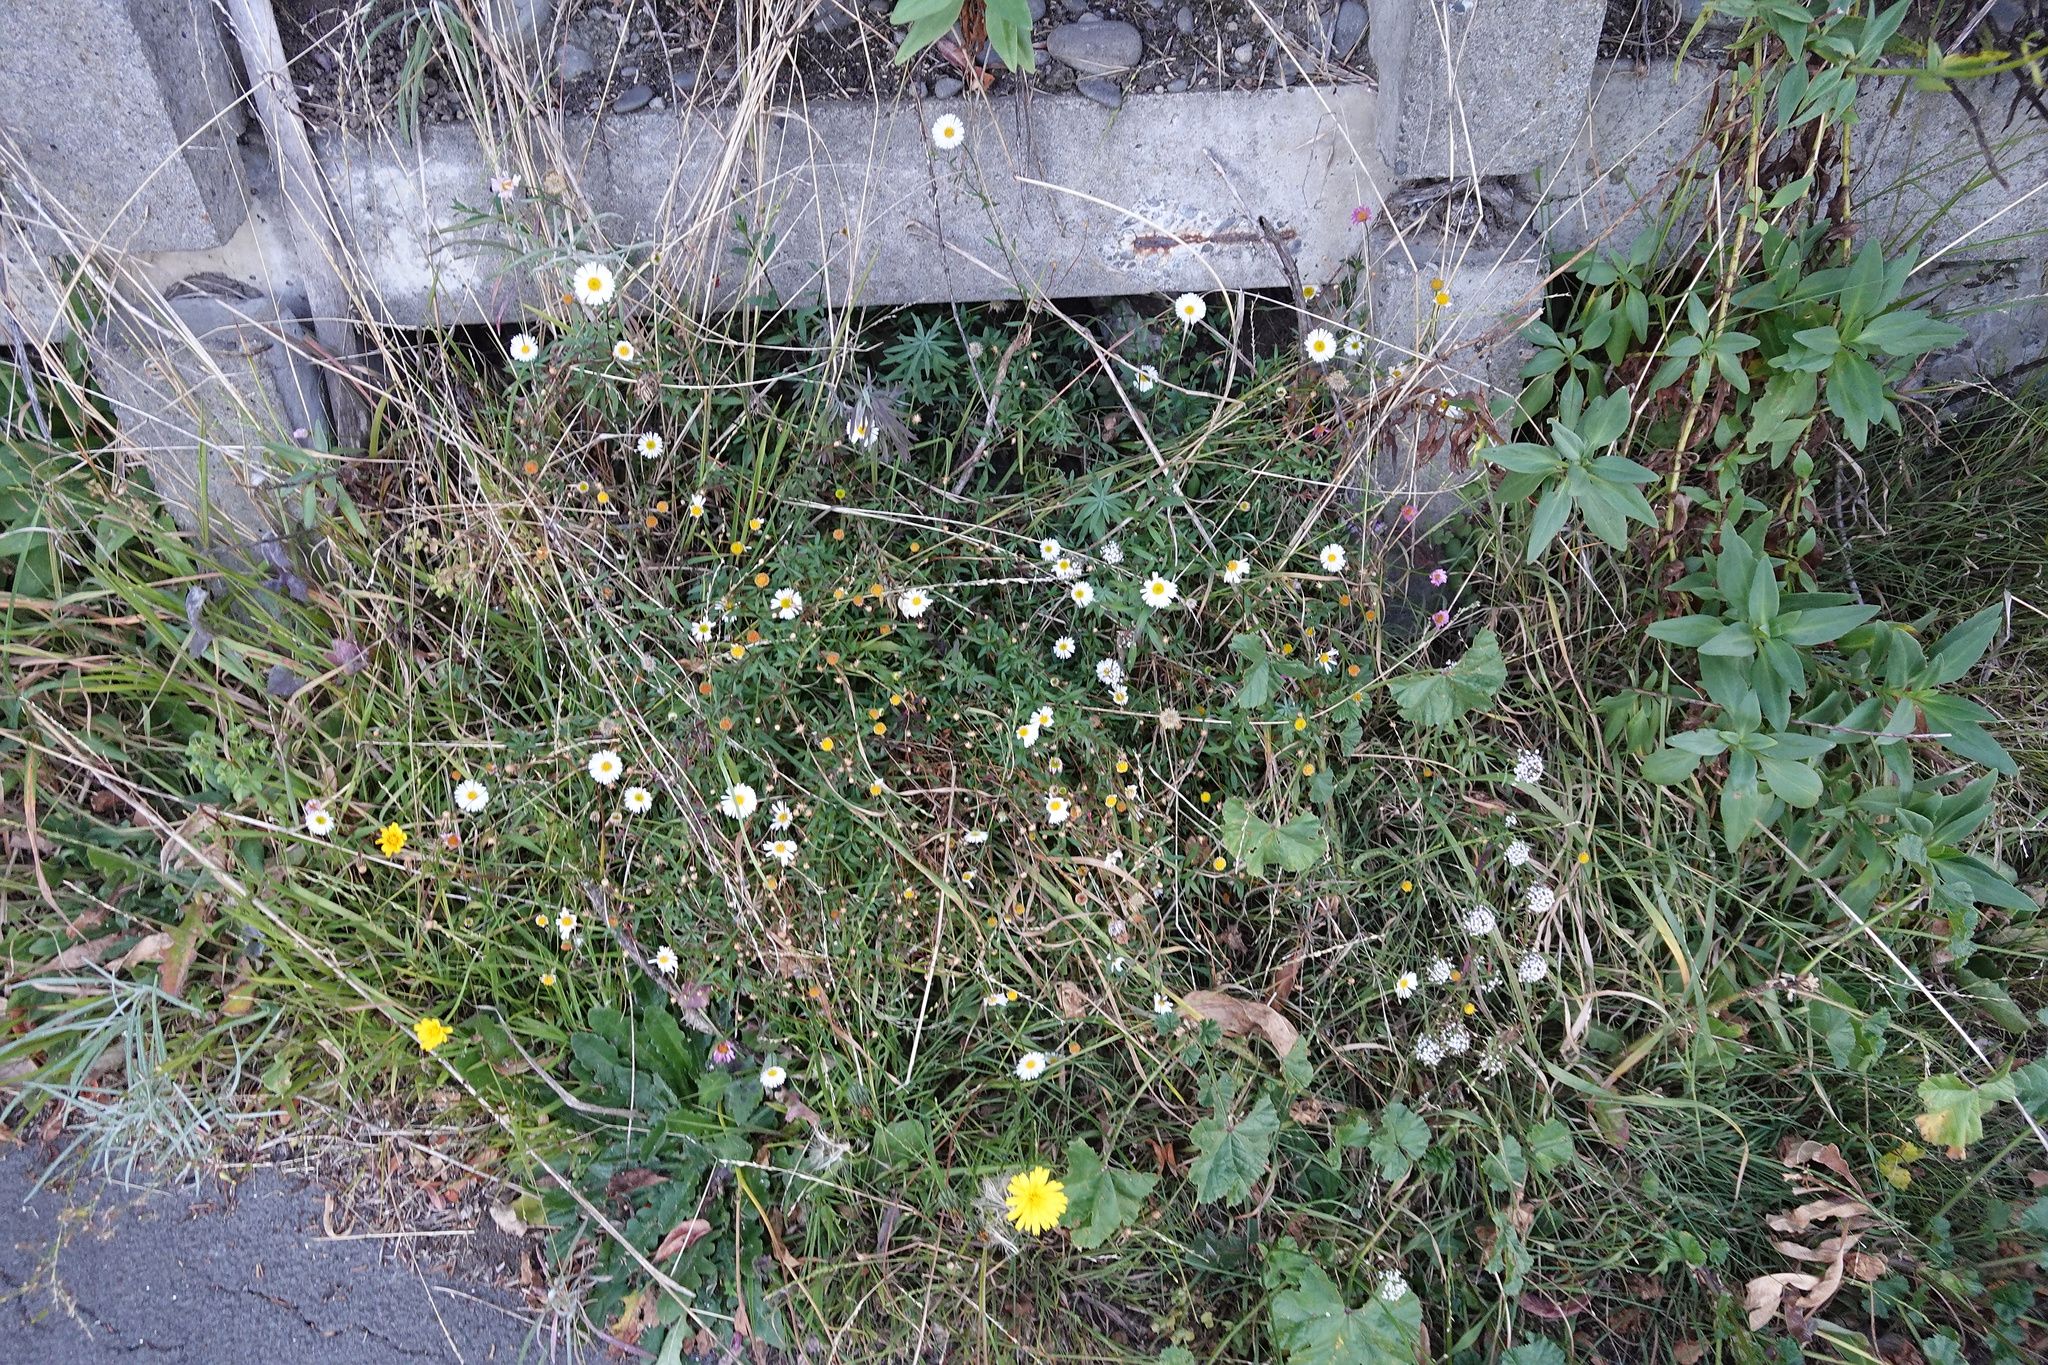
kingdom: Plantae
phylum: Tracheophyta
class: Magnoliopsida
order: Asterales
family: Asteraceae
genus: Erigeron
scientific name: Erigeron karvinskianus
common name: Mexican fleabane
